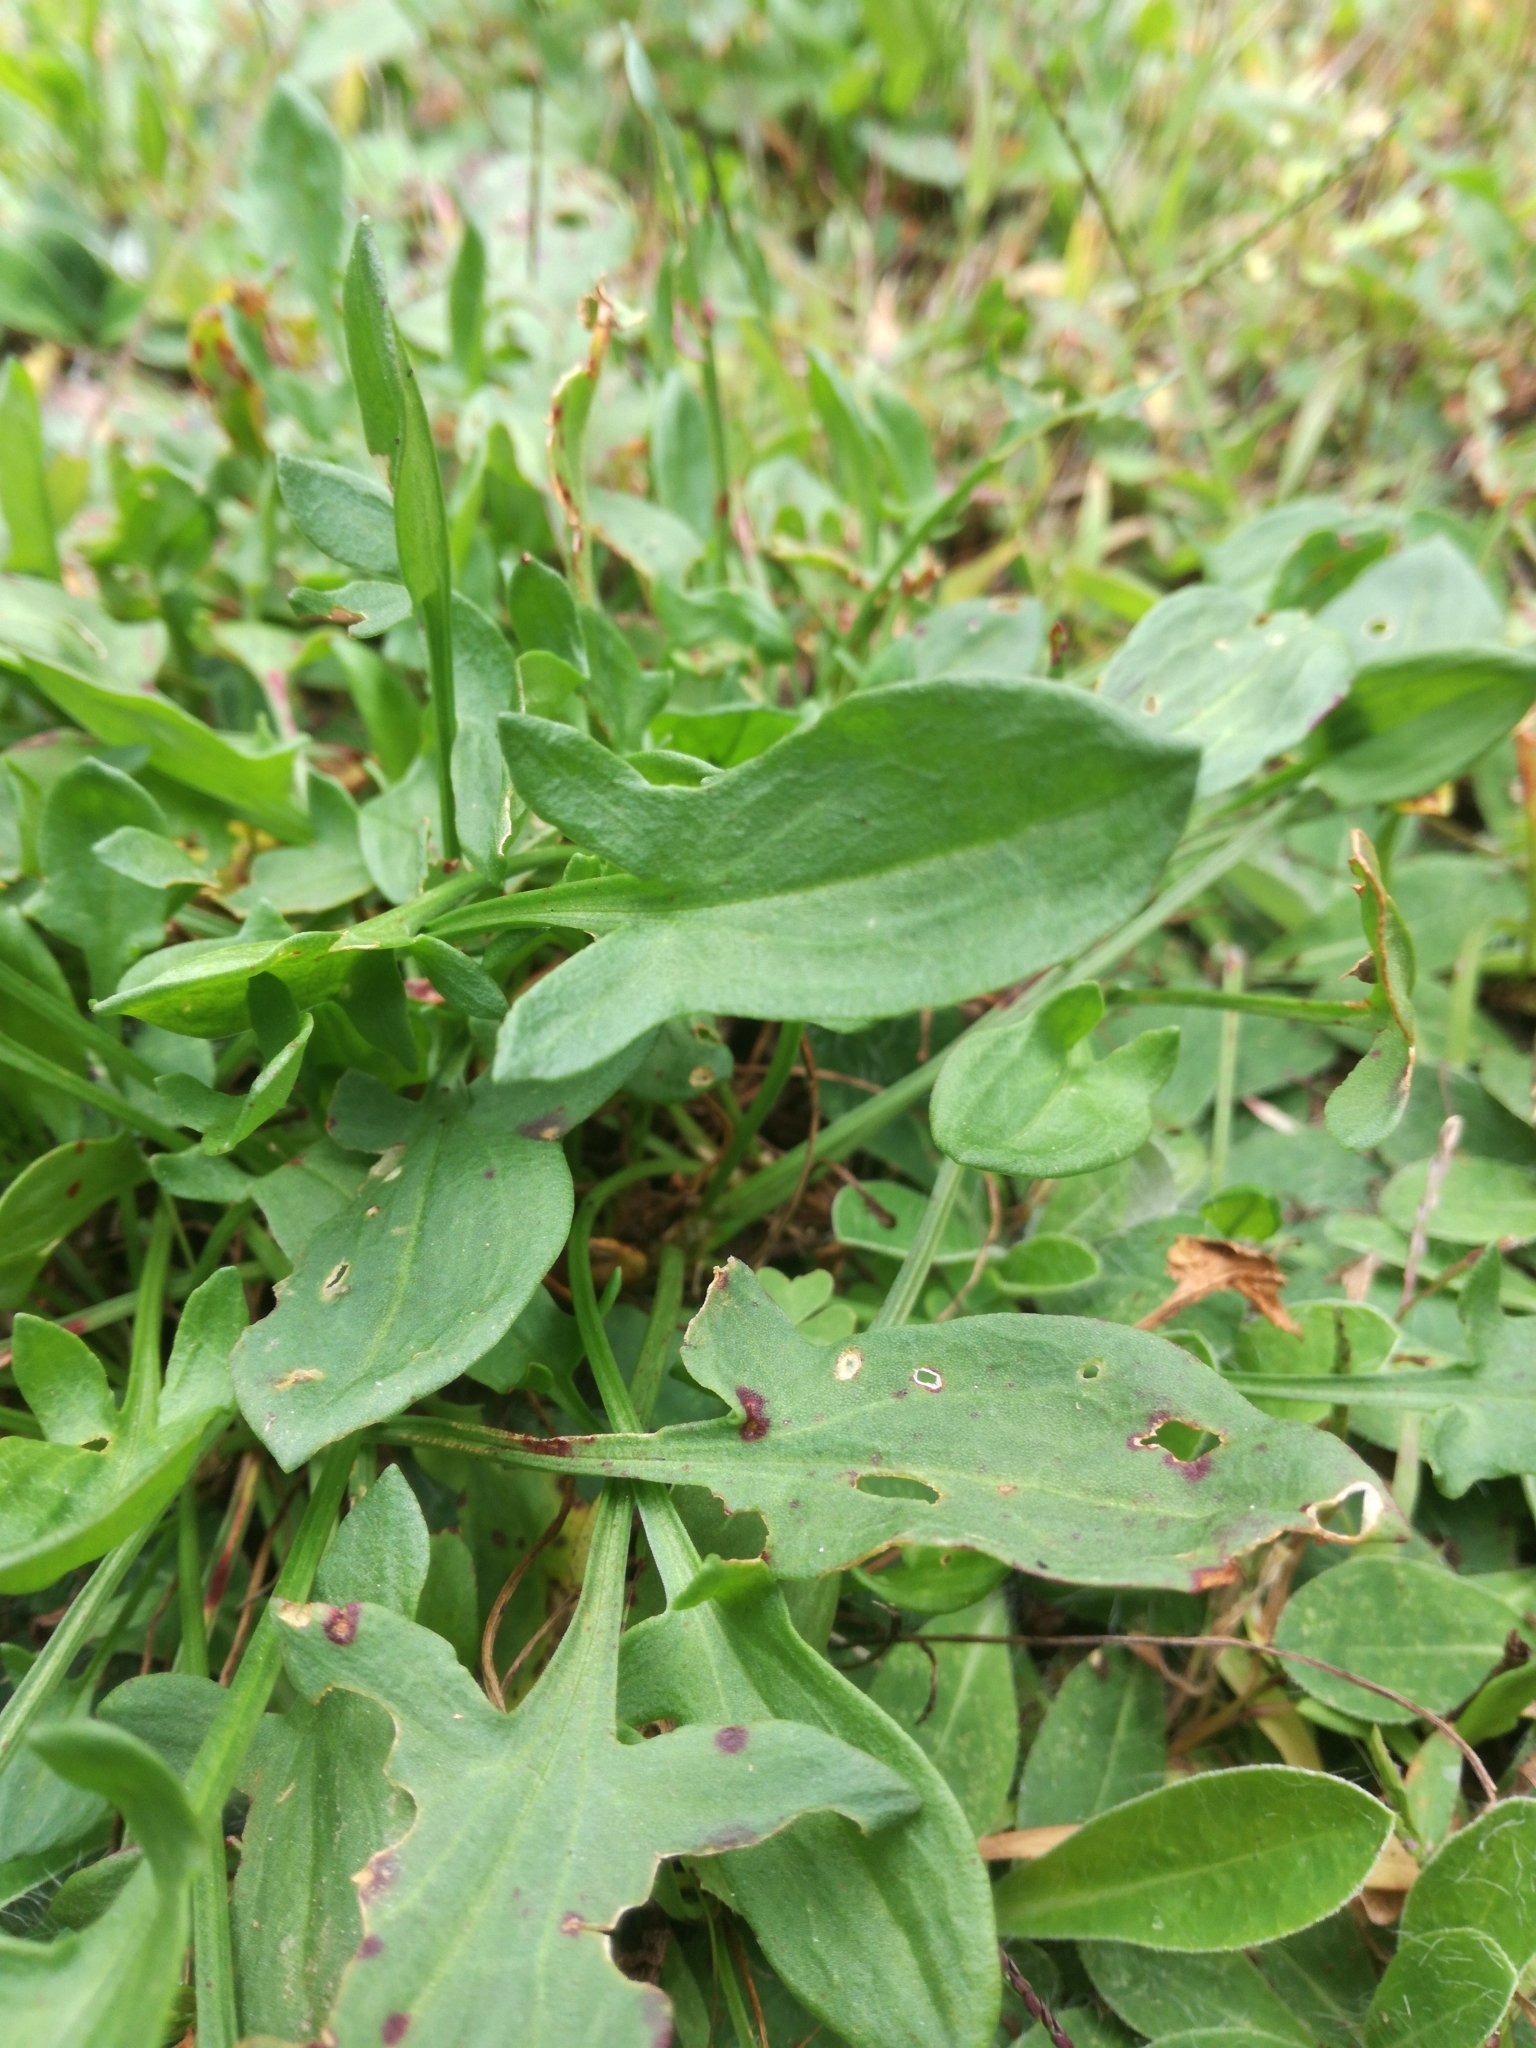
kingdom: Plantae
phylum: Tracheophyta
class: Magnoliopsida
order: Caryophyllales
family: Polygonaceae
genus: Rumex
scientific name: Rumex acetosella
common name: Common sheep sorrel
